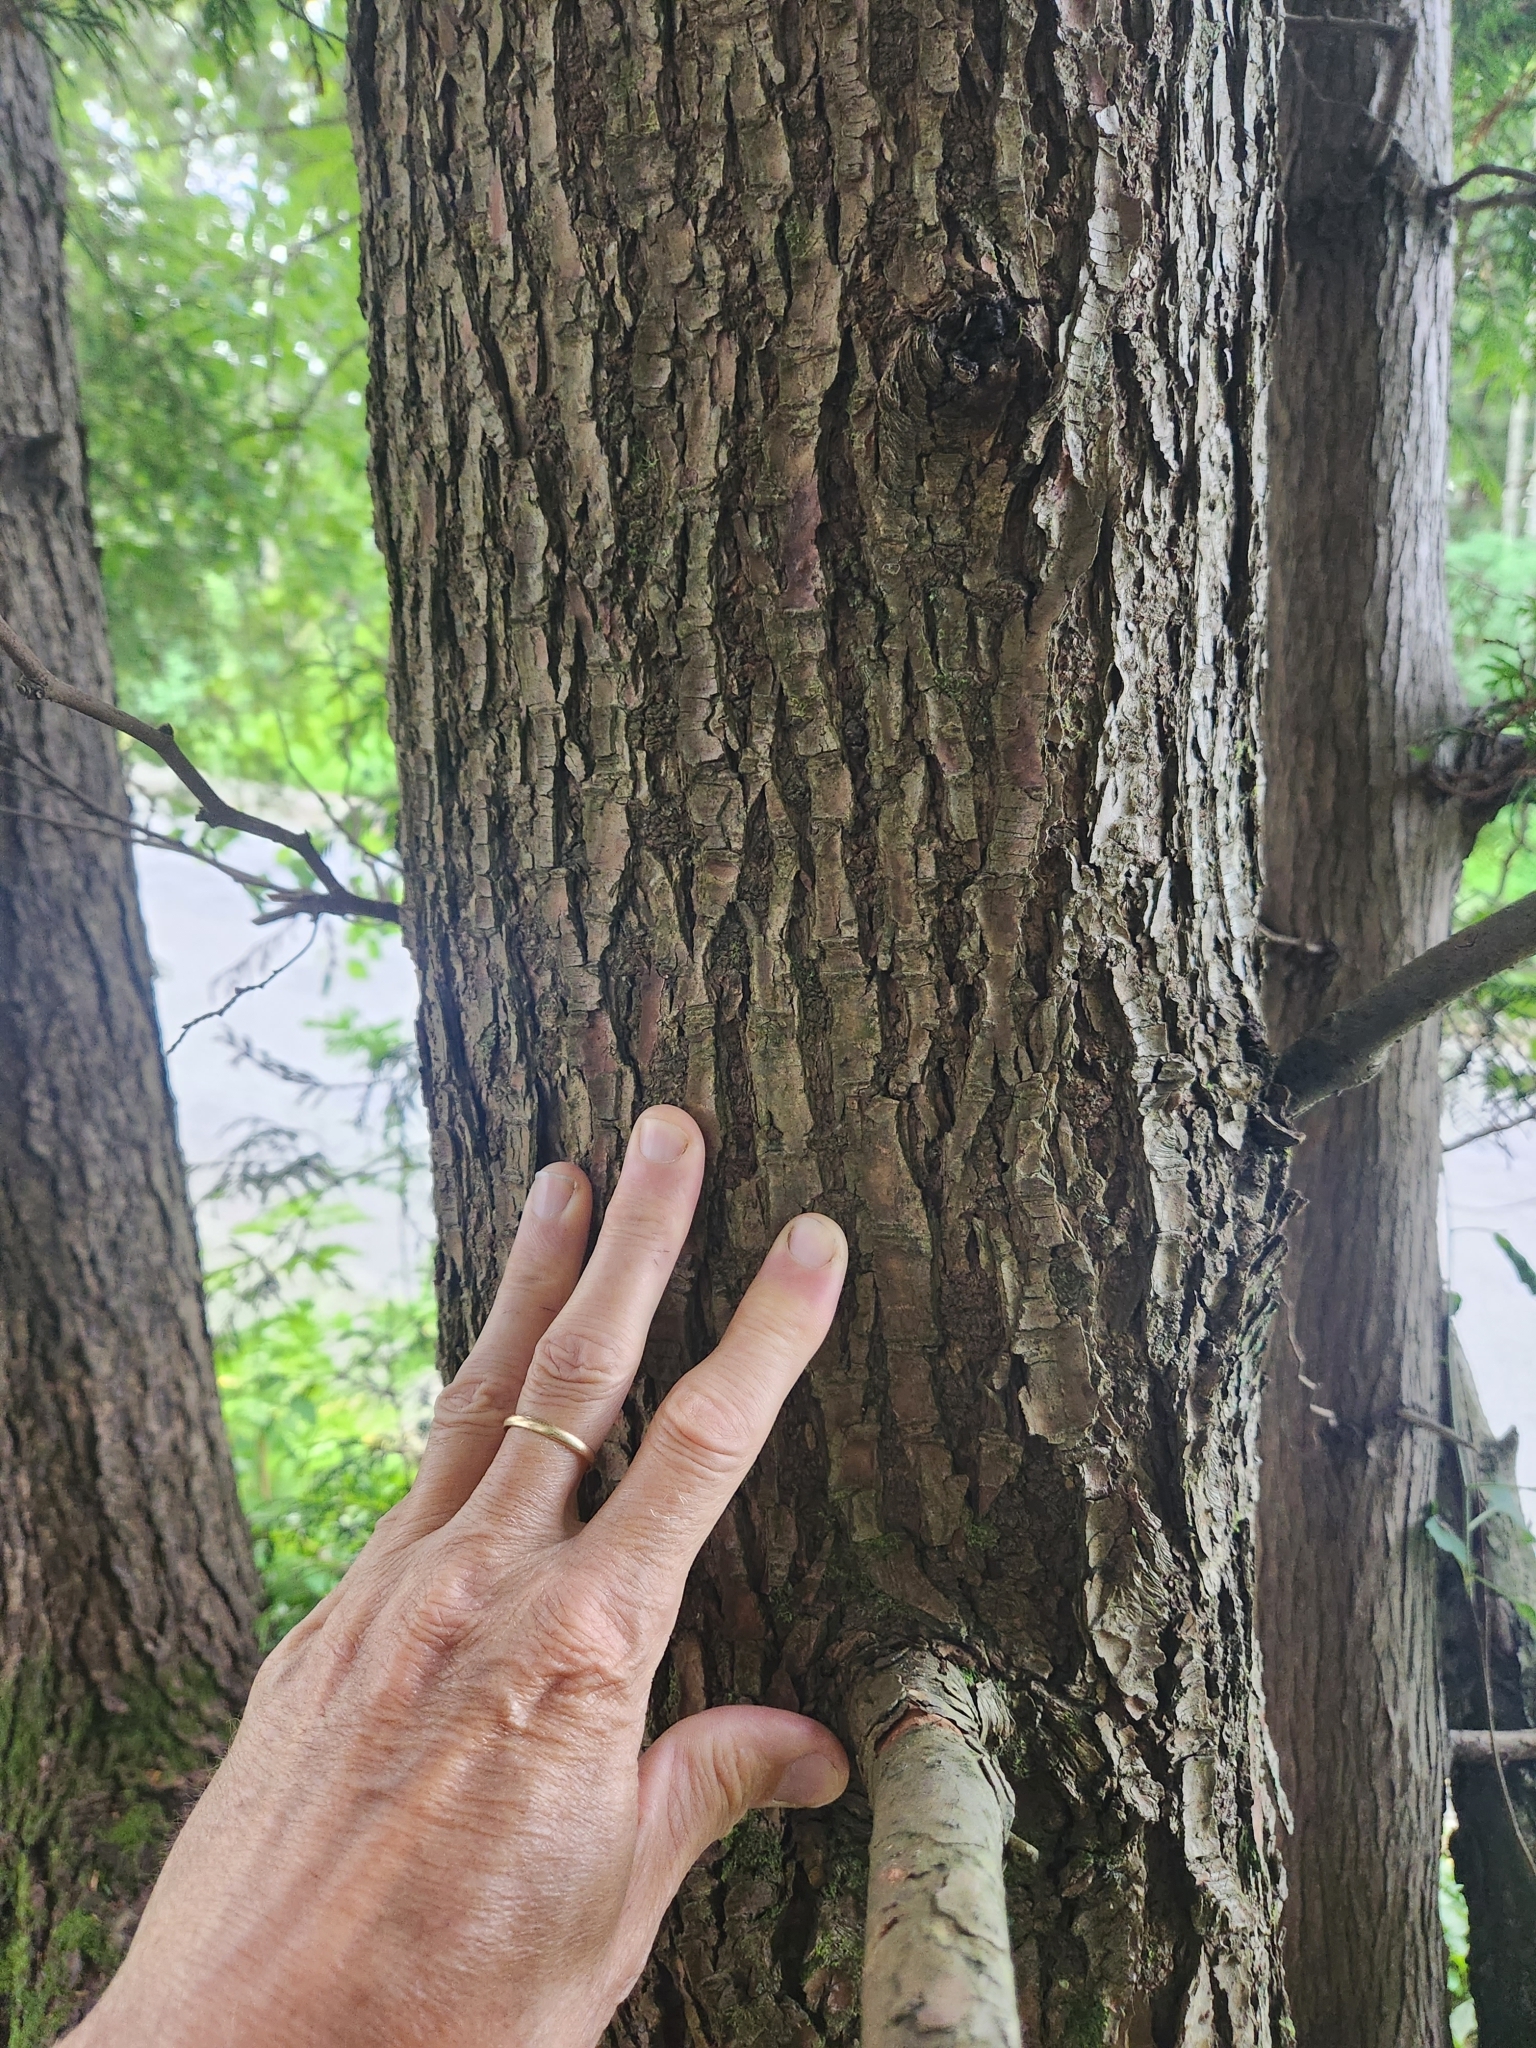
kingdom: Plantae
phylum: Tracheophyta
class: Pinopsida
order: Pinales
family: Pinaceae
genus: Tsuga
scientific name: Tsuga heterophylla
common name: Western hemlock
